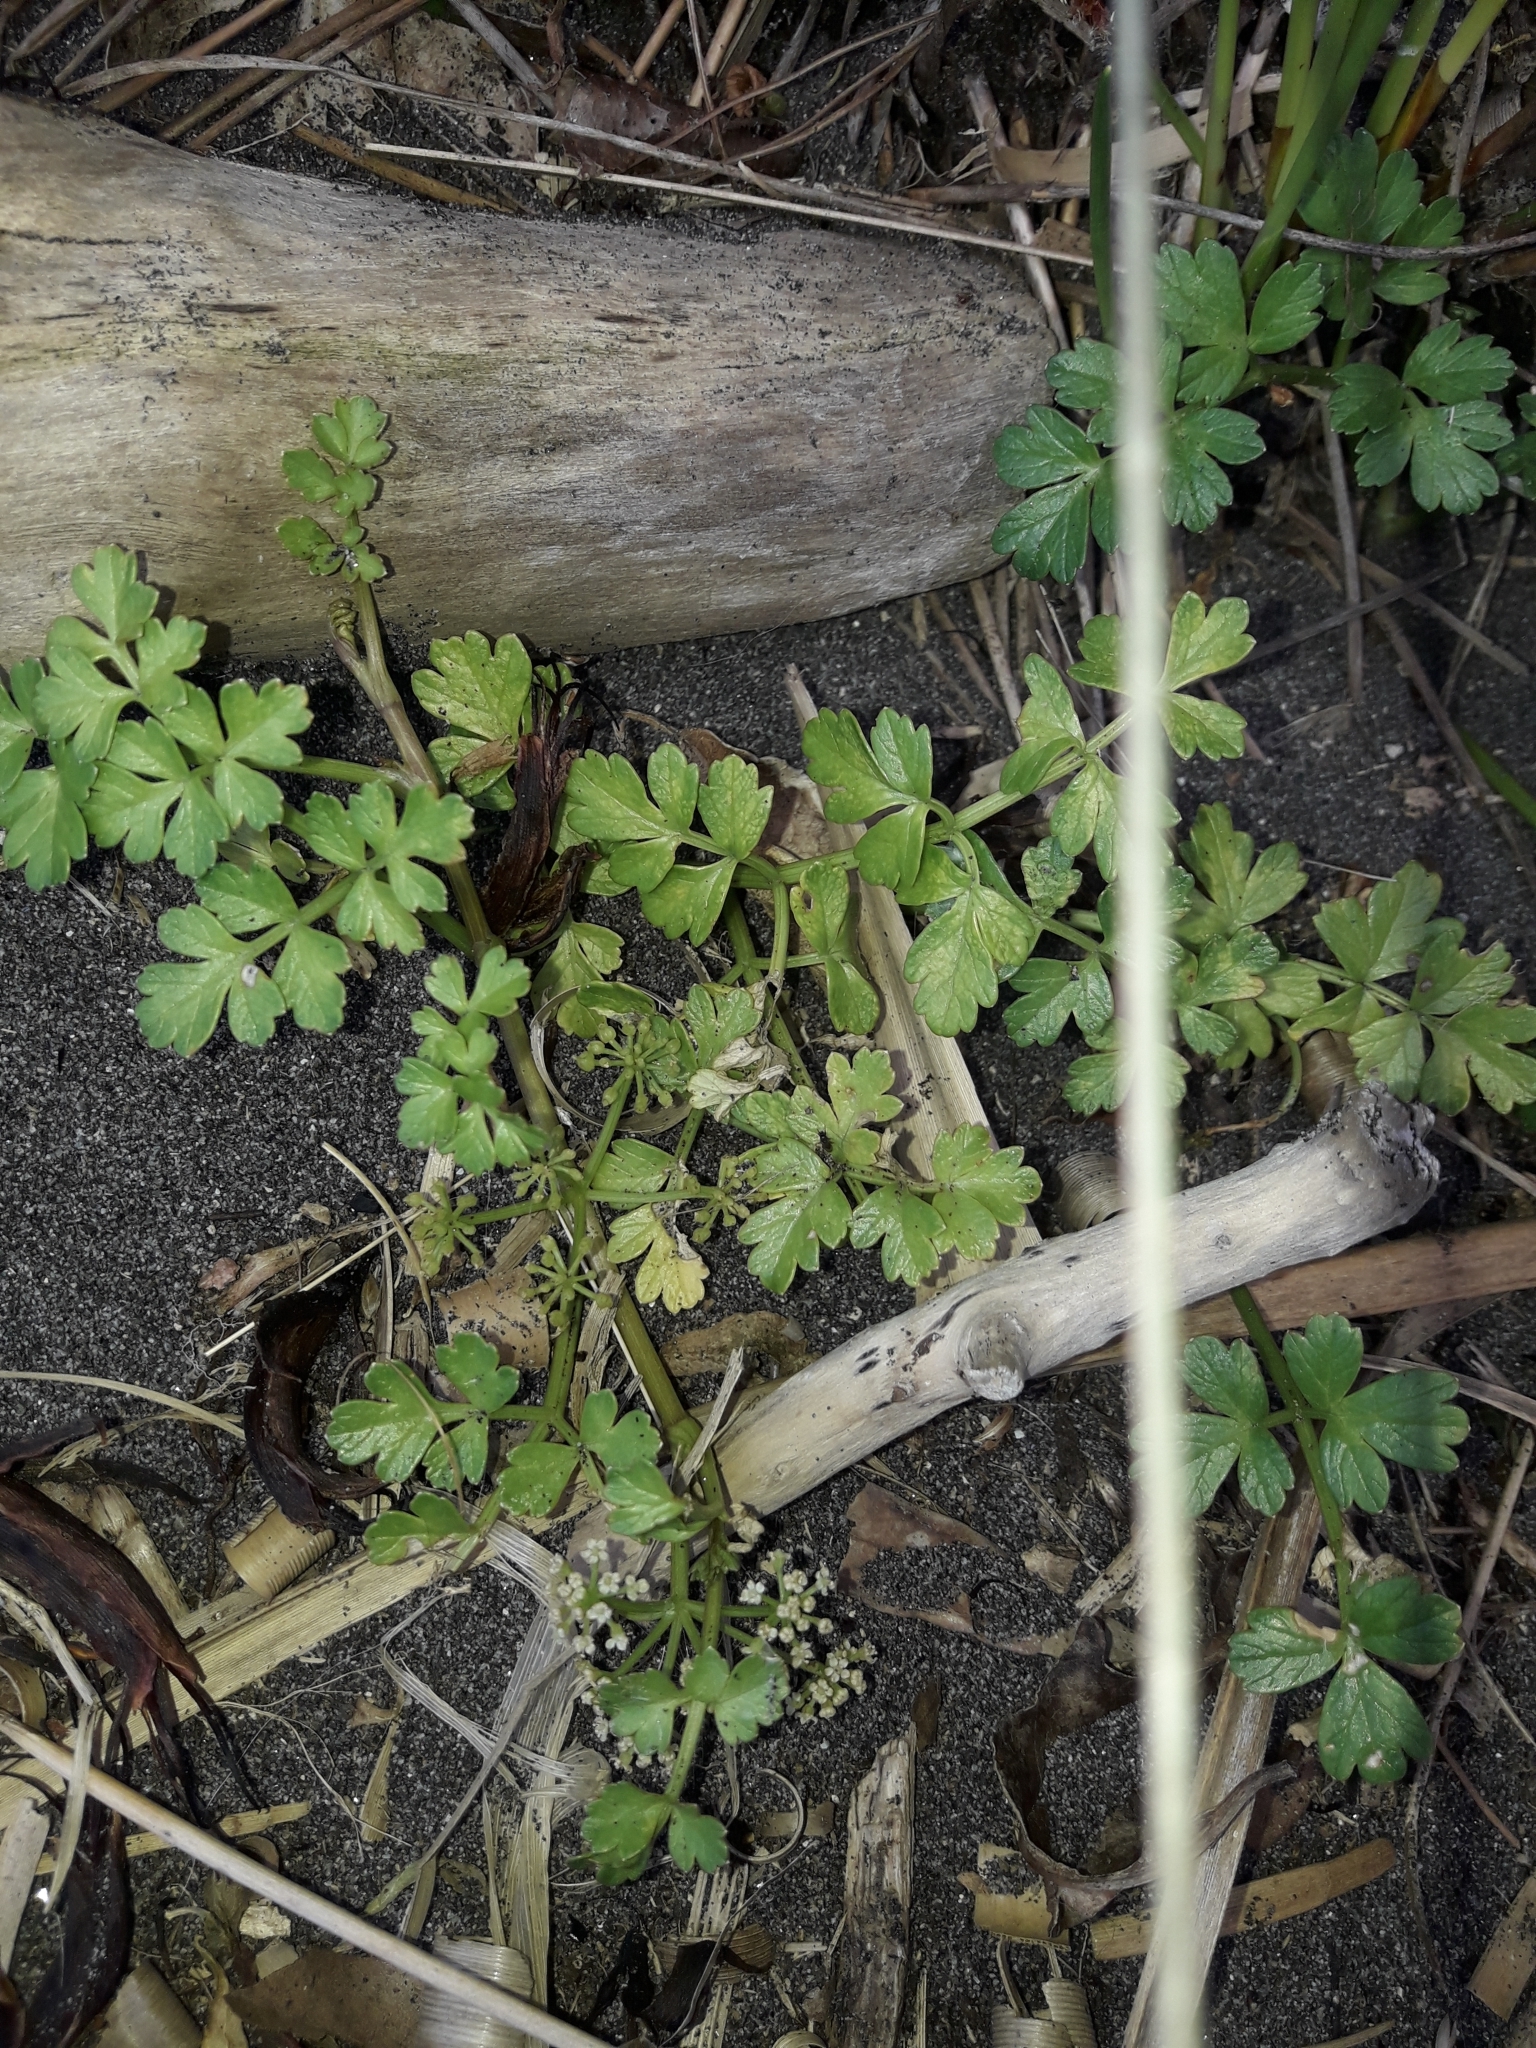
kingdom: Plantae
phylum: Tracheophyta
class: Magnoliopsida
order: Apiales
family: Apiaceae
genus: Apium
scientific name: Apium prostratum
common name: Prostrate marshwort
